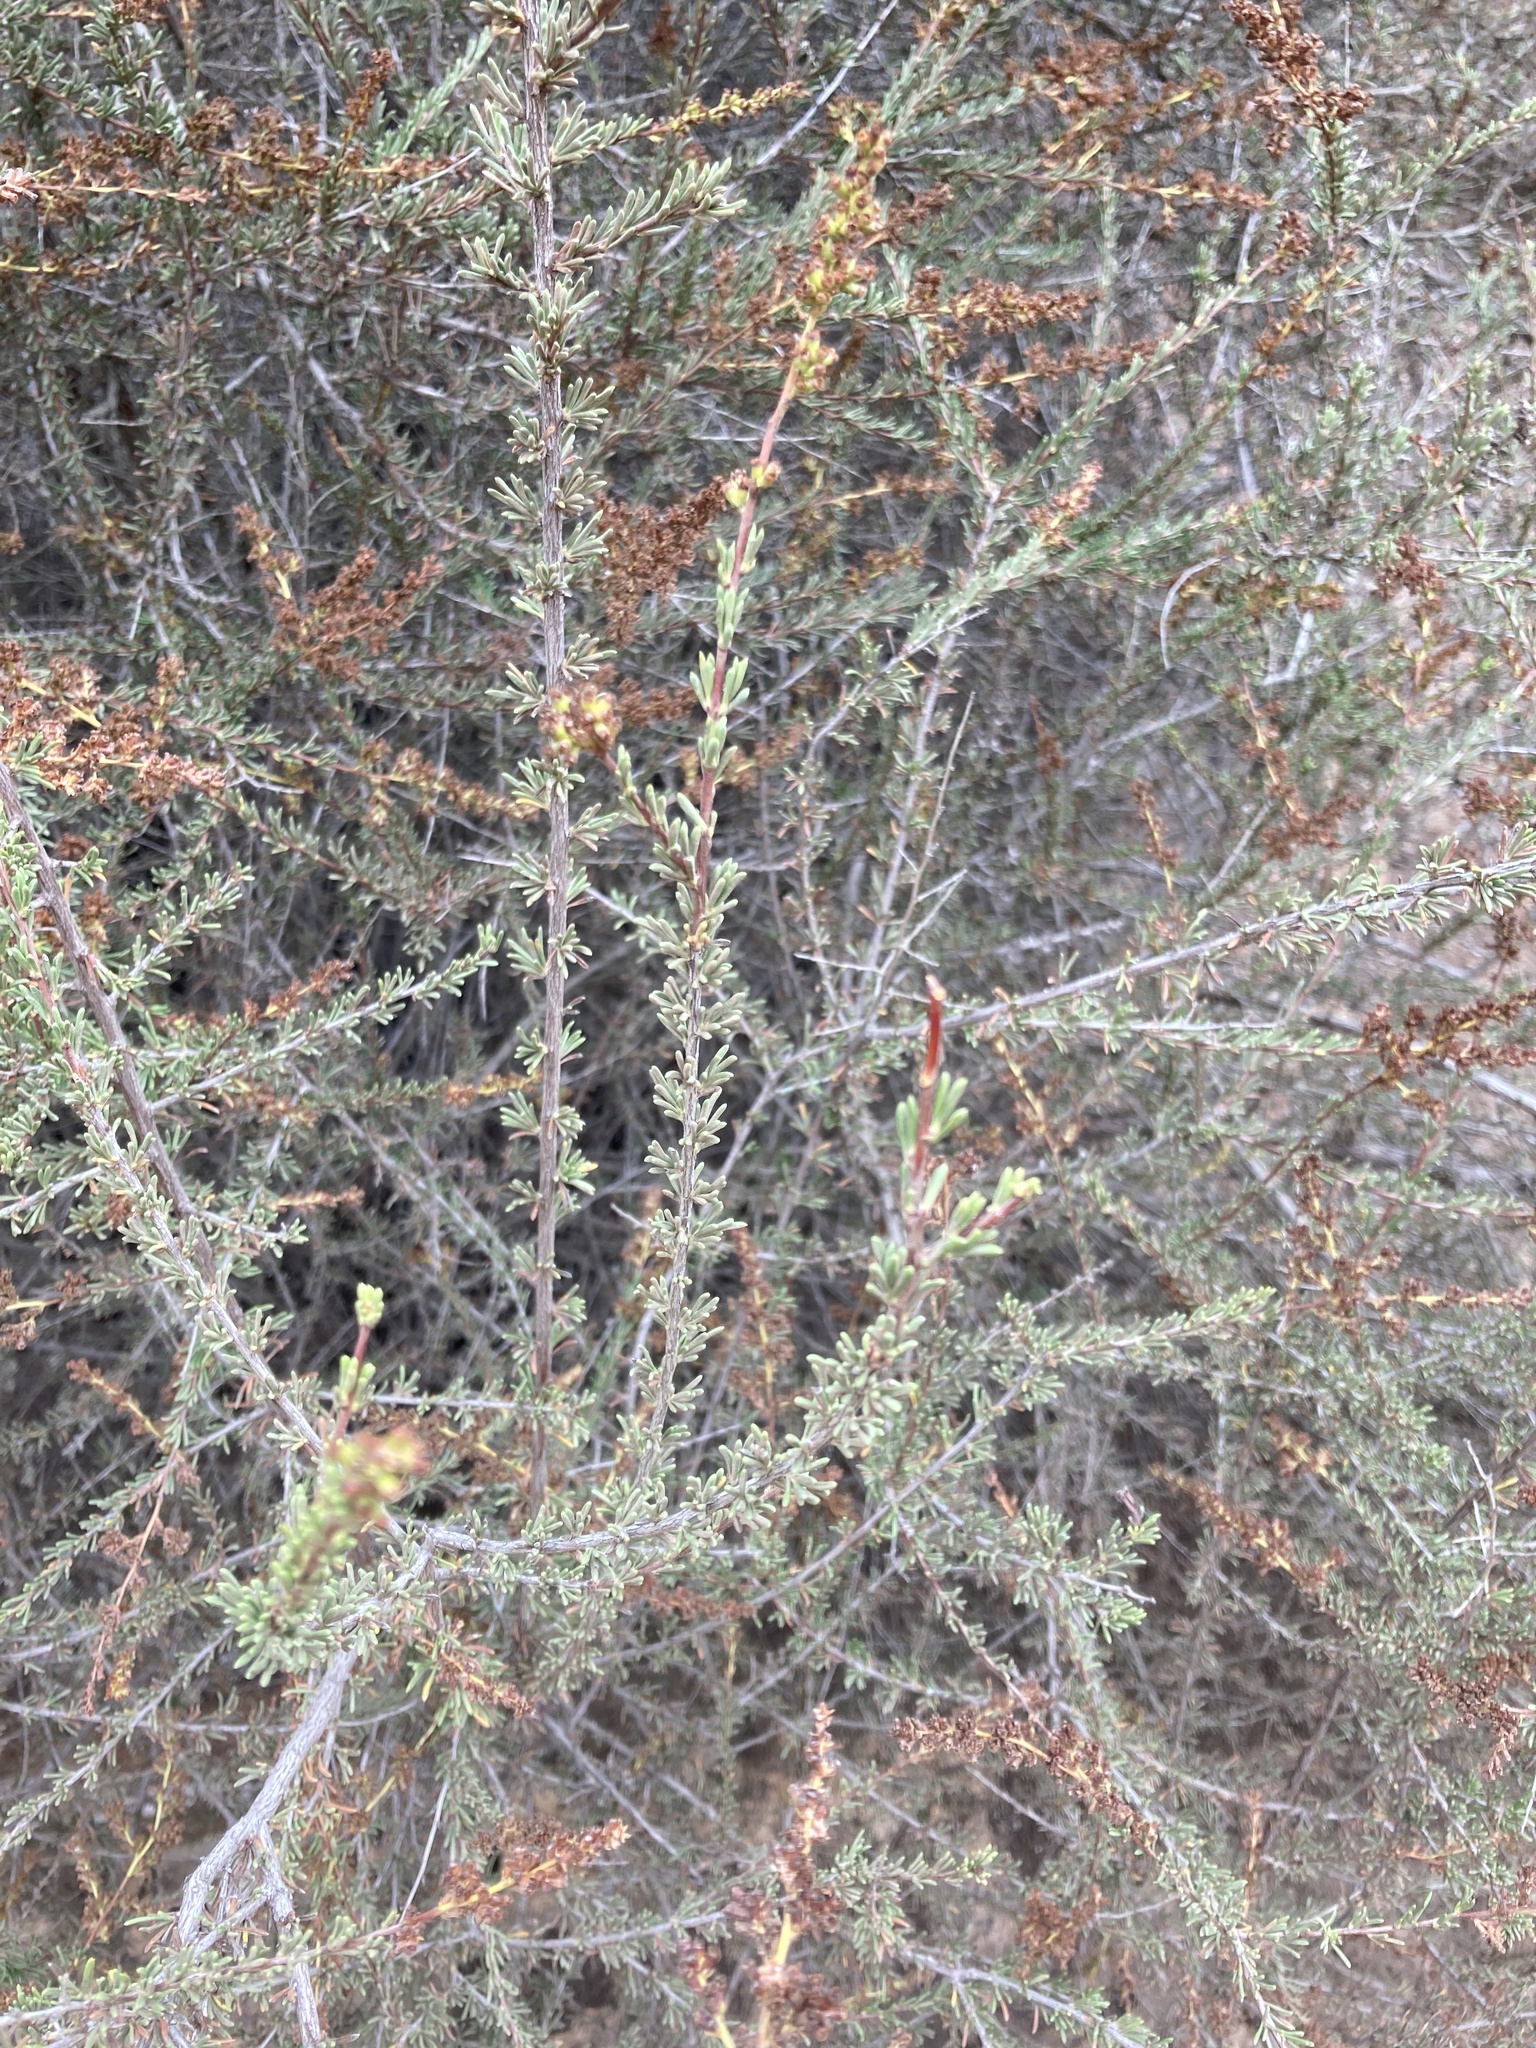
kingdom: Plantae
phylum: Tracheophyta
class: Magnoliopsida
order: Rosales
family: Rosaceae
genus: Adenostoma
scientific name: Adenostoma fasciculatum
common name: Chamise
